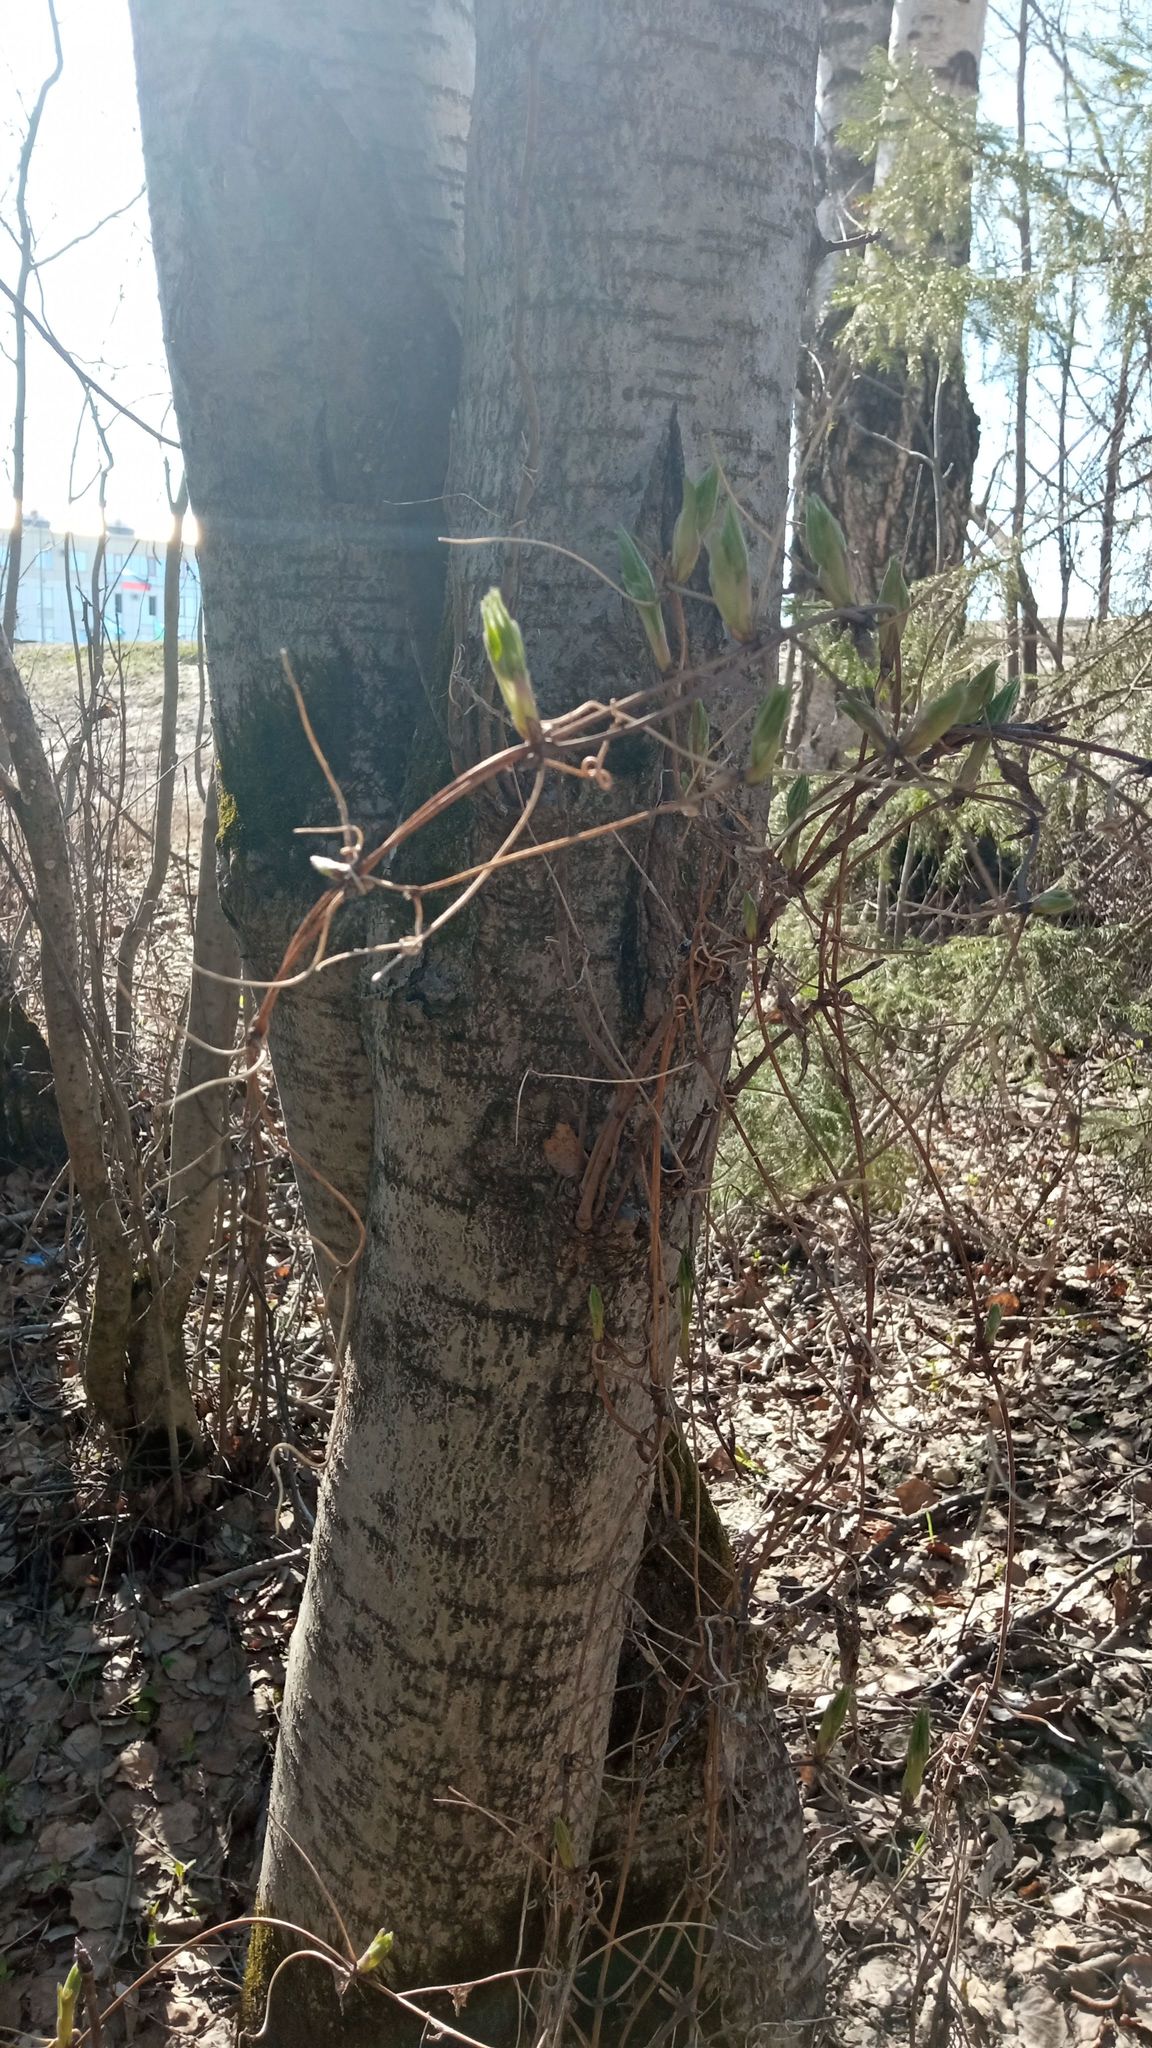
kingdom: Plantae
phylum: Tracheophyta
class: Magnoliopsida
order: Ranunculales
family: Ranunculaceae
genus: Clematis
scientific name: Clematis sibirica
